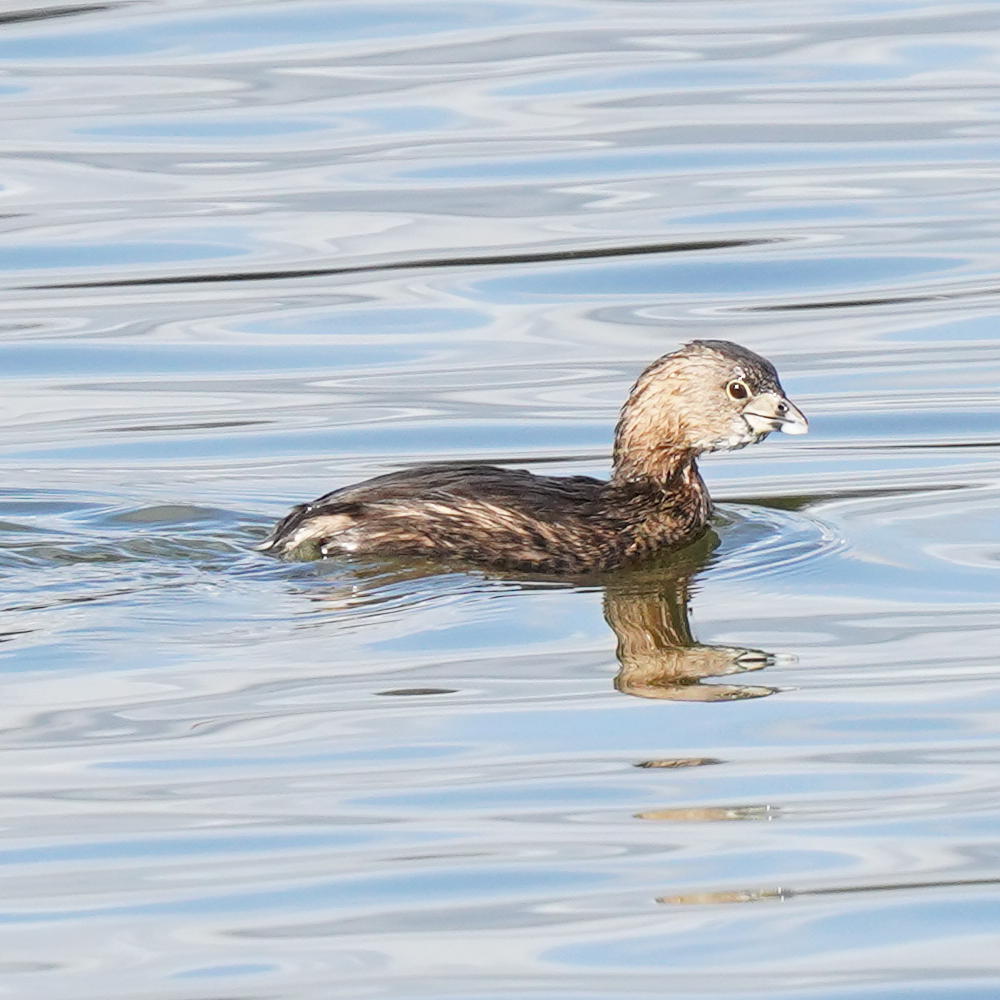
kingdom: Animalia
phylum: Chordata
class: Aves
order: Podicipediformes
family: Podicipedidae
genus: Podilymbus
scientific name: Podilymbus podiceps
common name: Pied-billed grebe
